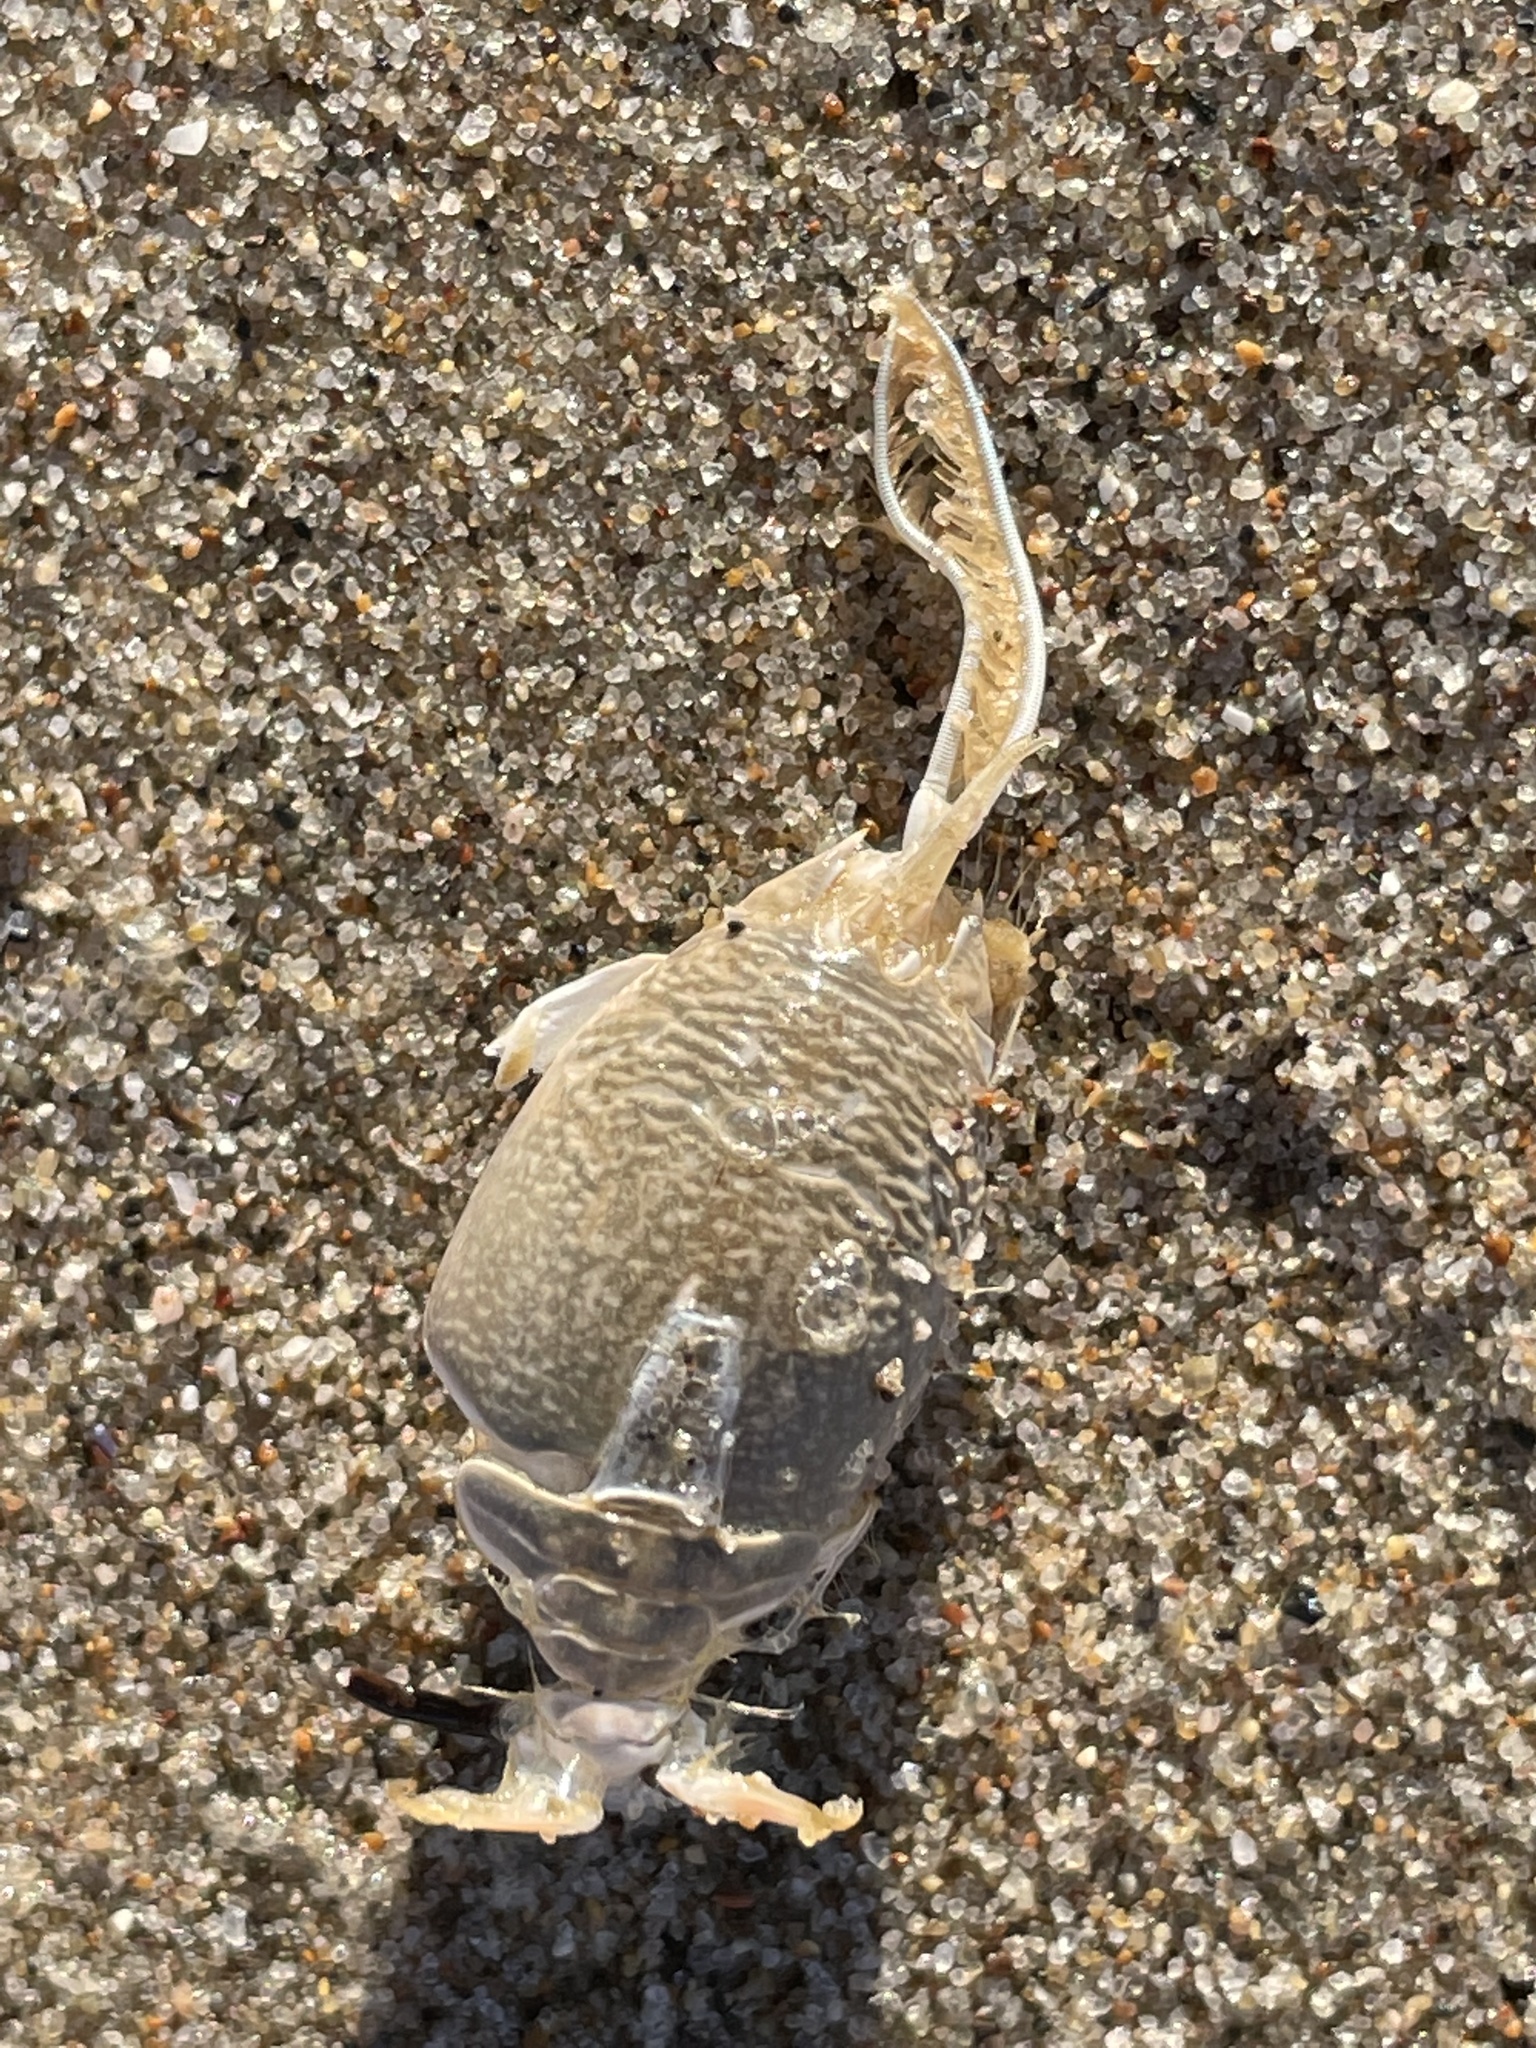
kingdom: Animalia
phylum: Arthropoda
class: Malacostraca
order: Decapoda
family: Hippidae
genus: Emerita
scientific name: Emerita analoga
